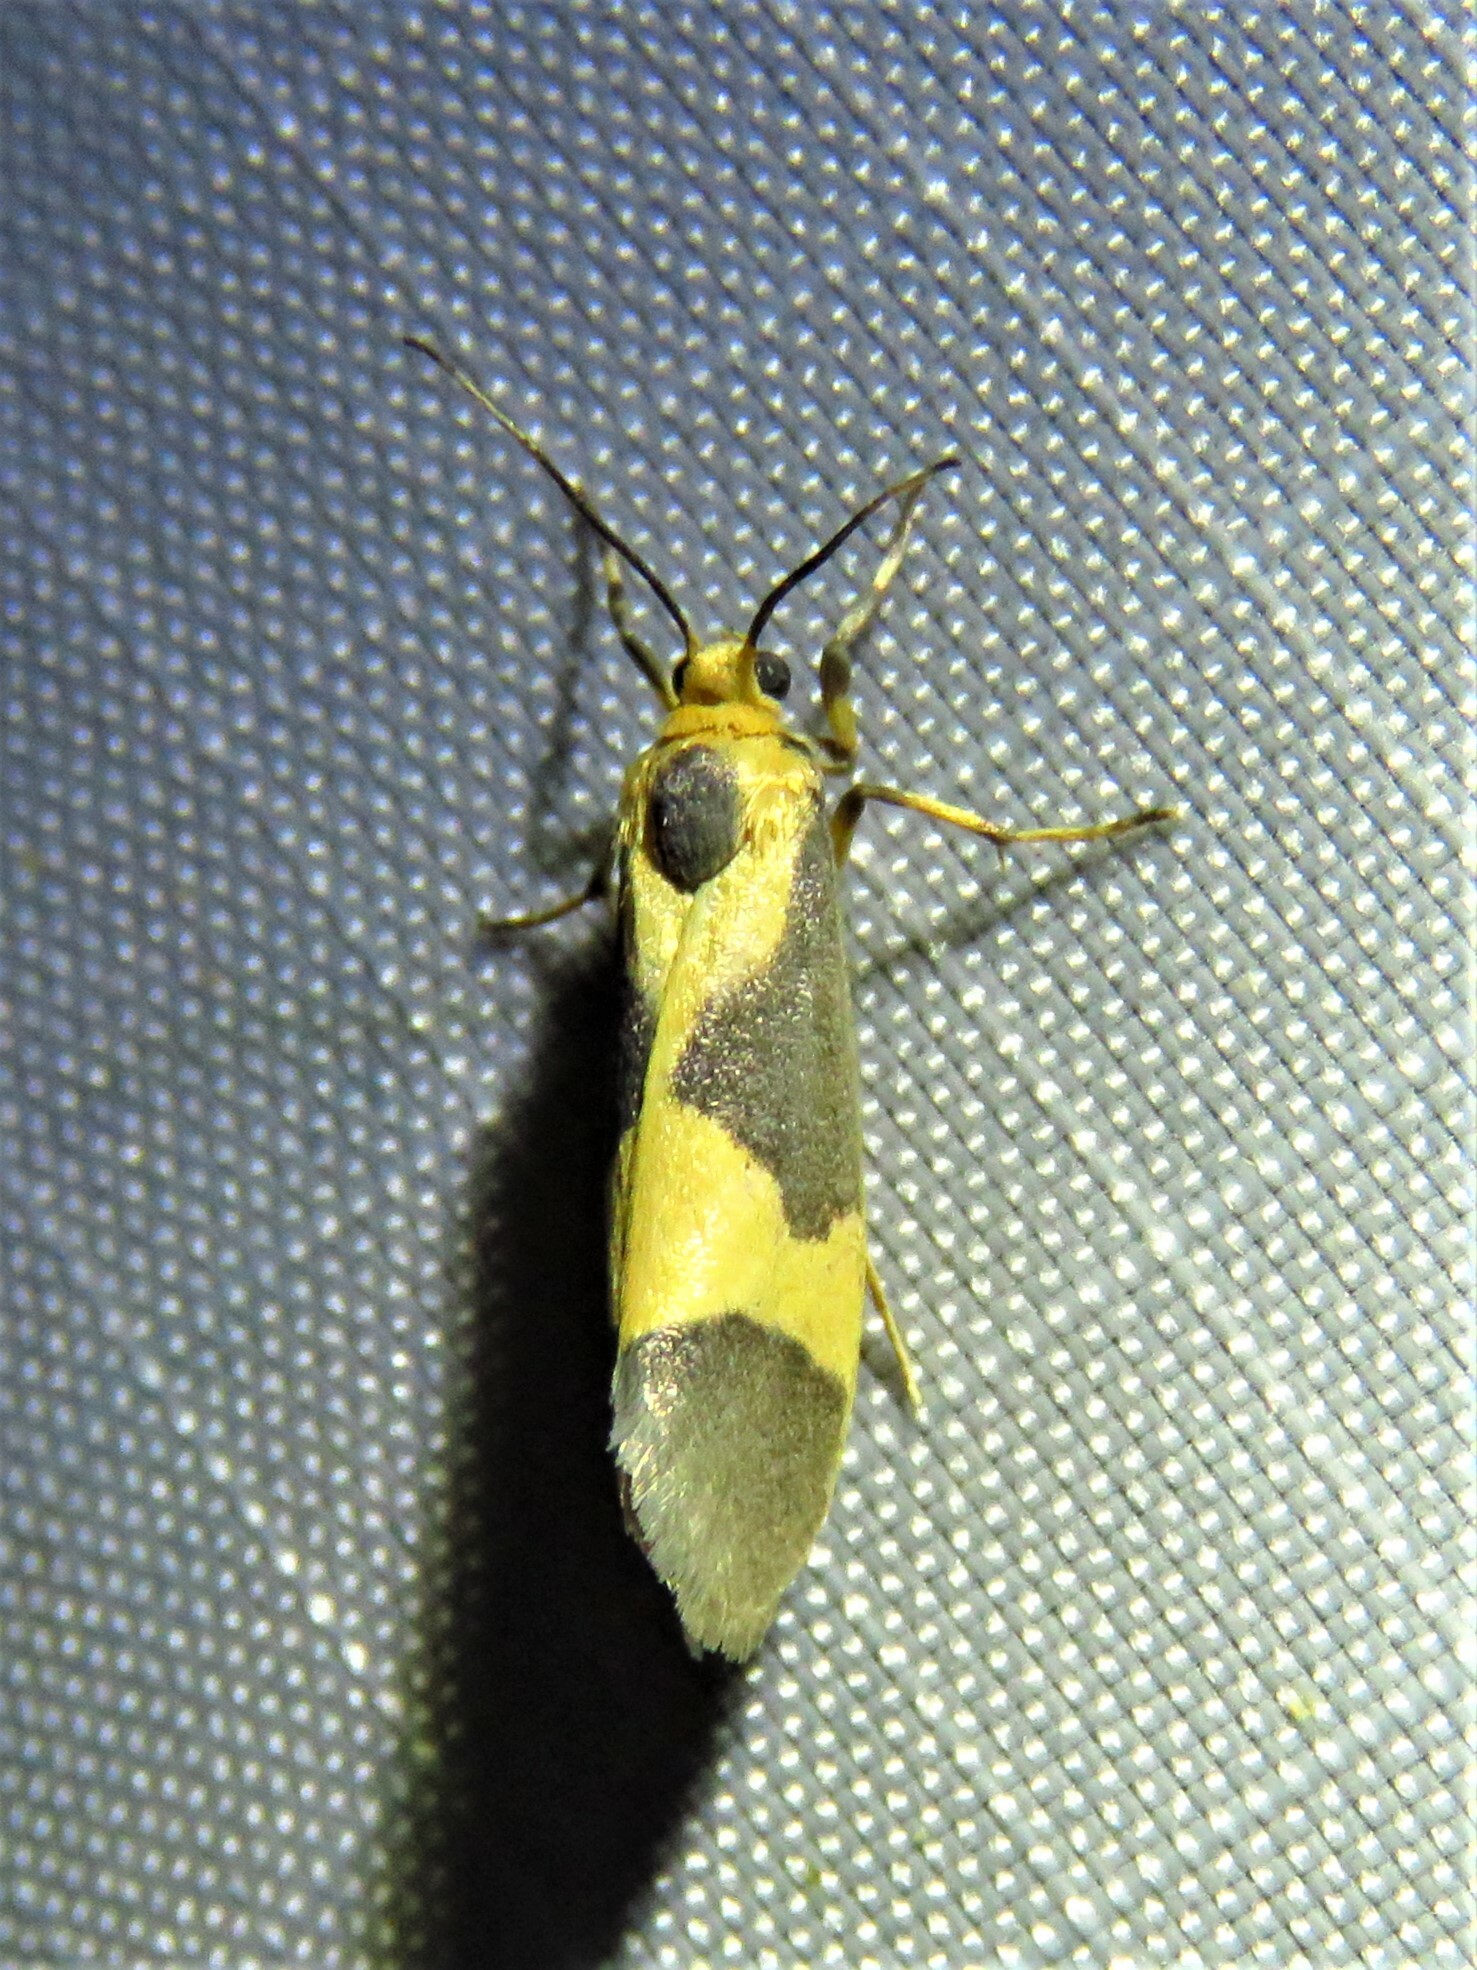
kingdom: Animalia
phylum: Arthropoda
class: Insecta
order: Lepidoptera
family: Erebidae
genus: Cisthene
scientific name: Cisthene unifascia
